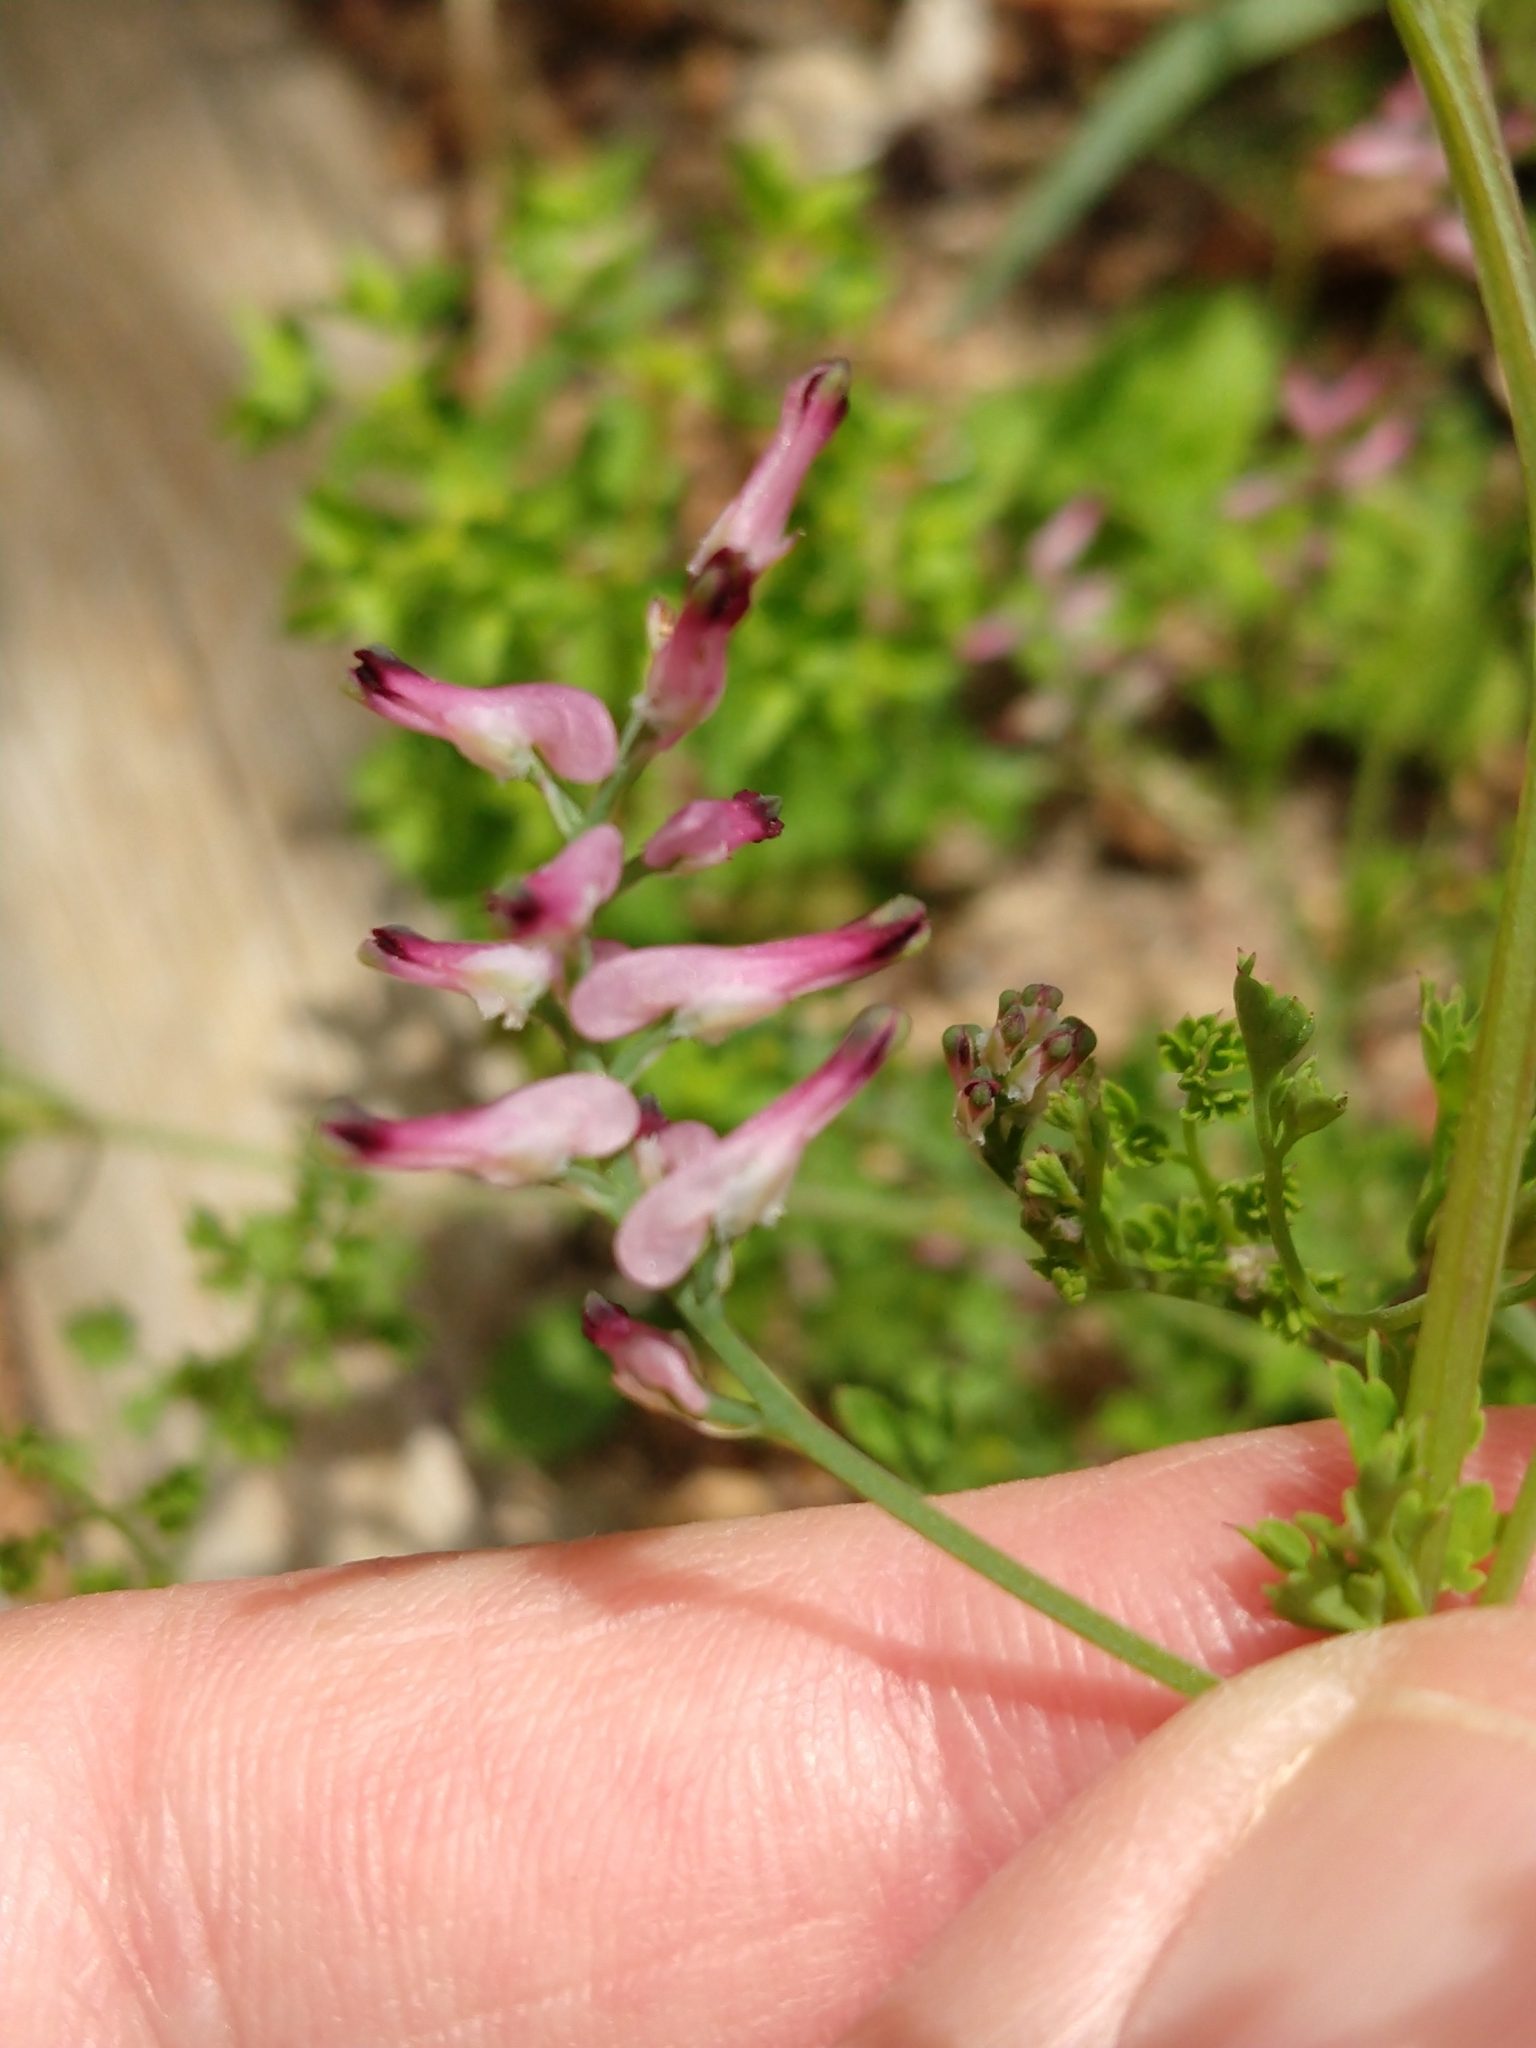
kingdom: Plantae
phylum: Tracheophyta
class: Magnoliopsida
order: Ranunculales
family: Papaveraceae
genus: Fumaria
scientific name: Fumaria muralis
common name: Common ramping-fumitory
